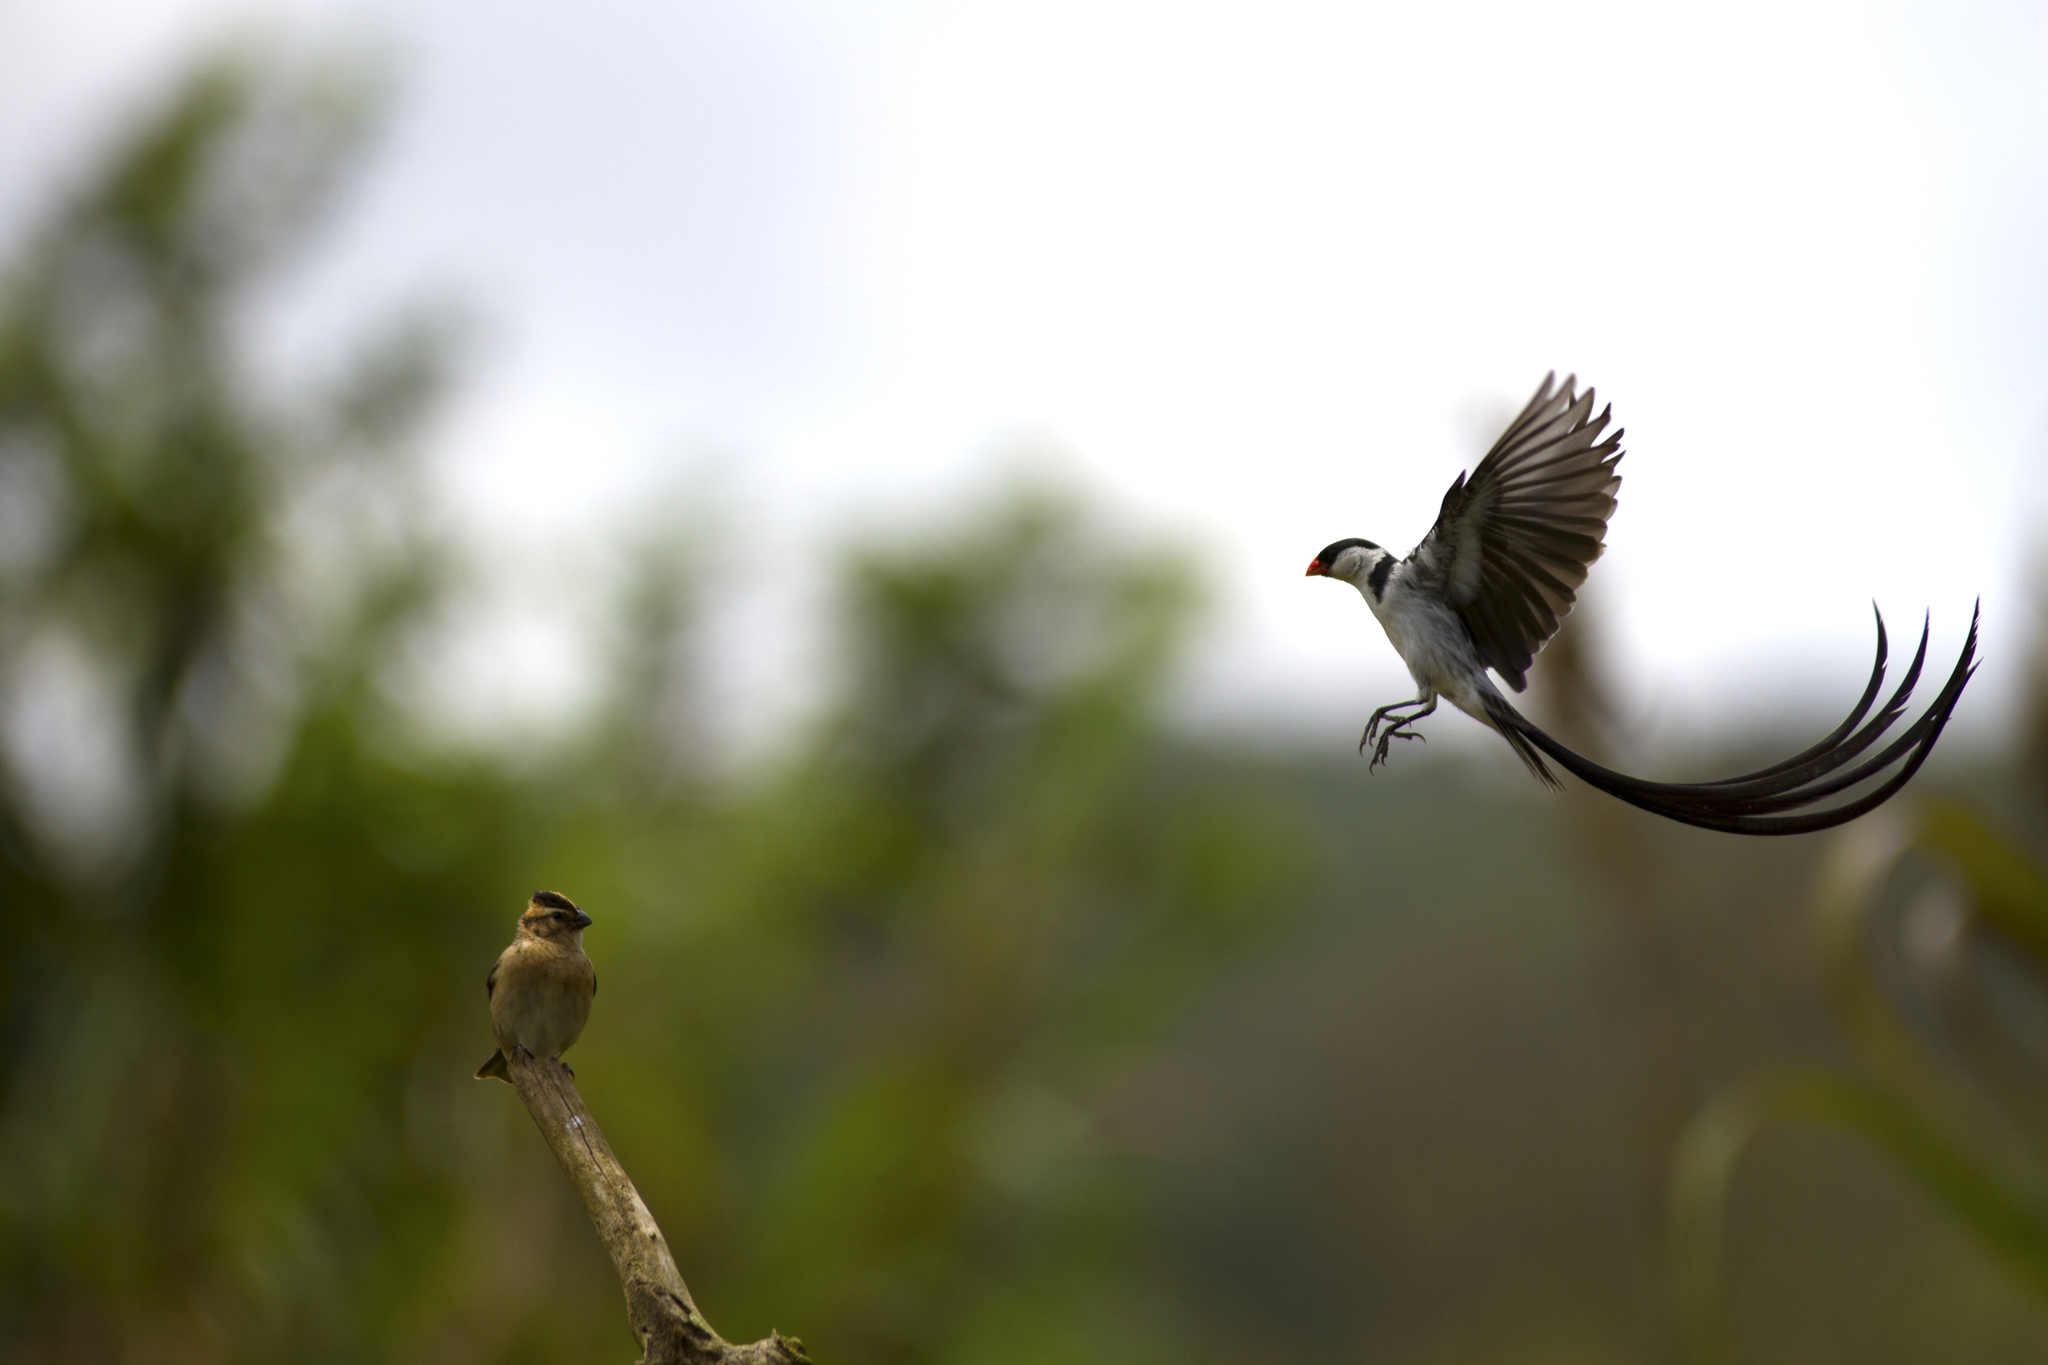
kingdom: Animalia
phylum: Chordata
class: Aves
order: Passeriformes
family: Viduidae
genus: Vidua
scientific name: Vidua macroura
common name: Pin-tailed whydah
